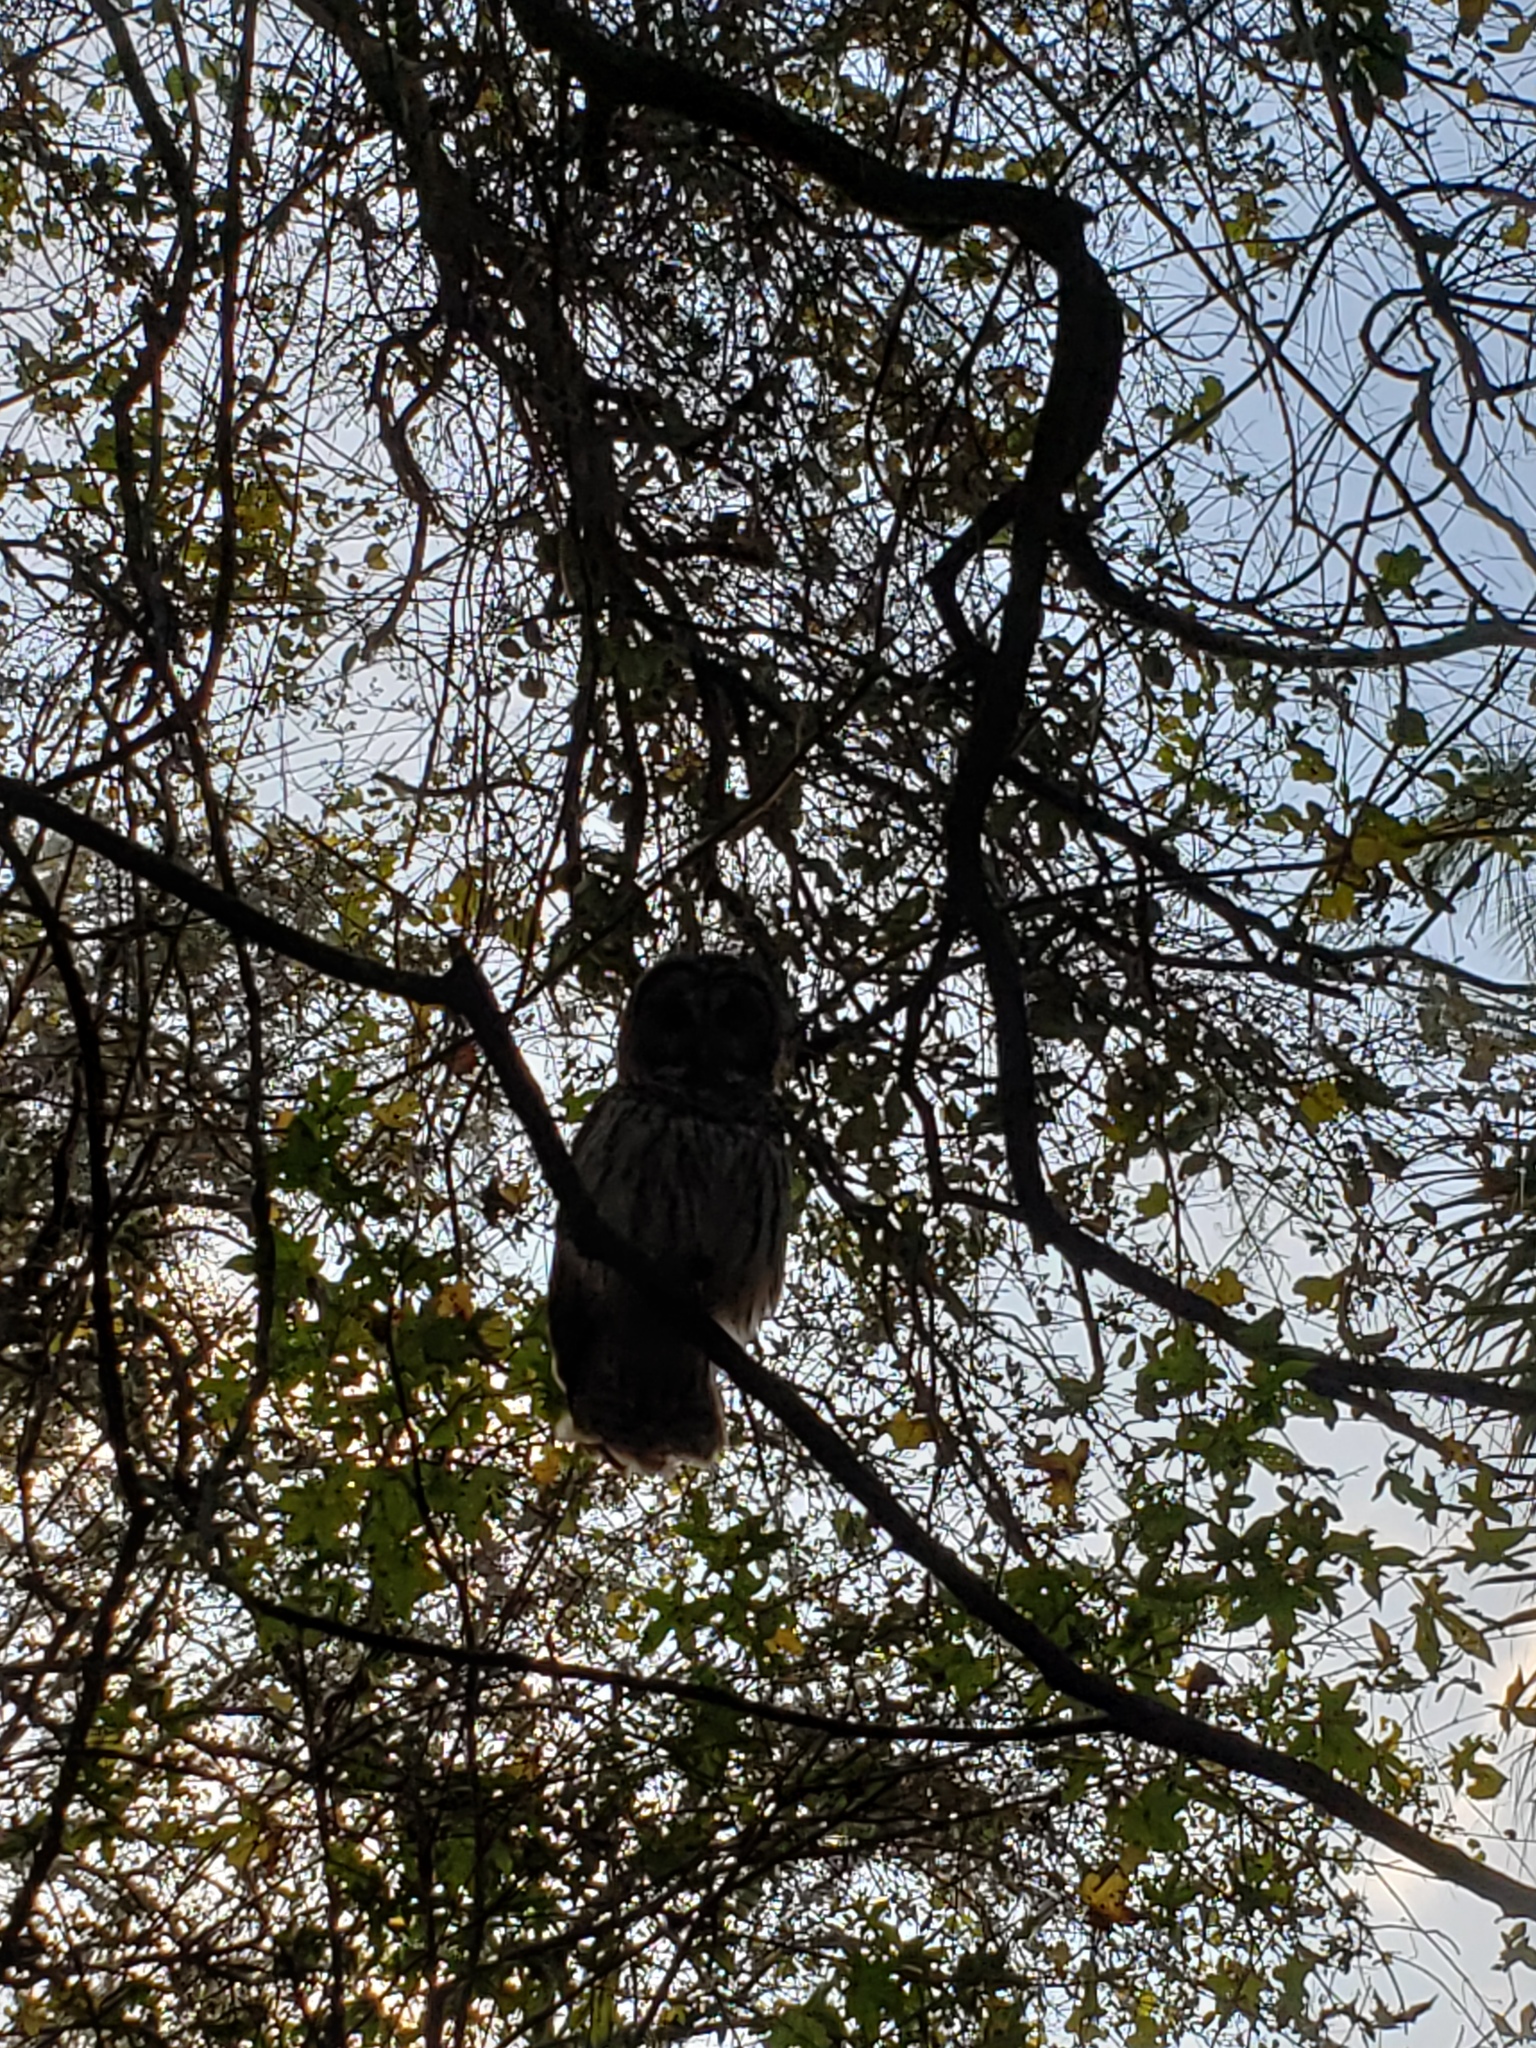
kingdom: Animalia
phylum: Chordata
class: Aves
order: Strigiformes
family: Strigidae
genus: Strix
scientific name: Strix varia
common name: Barred owl
